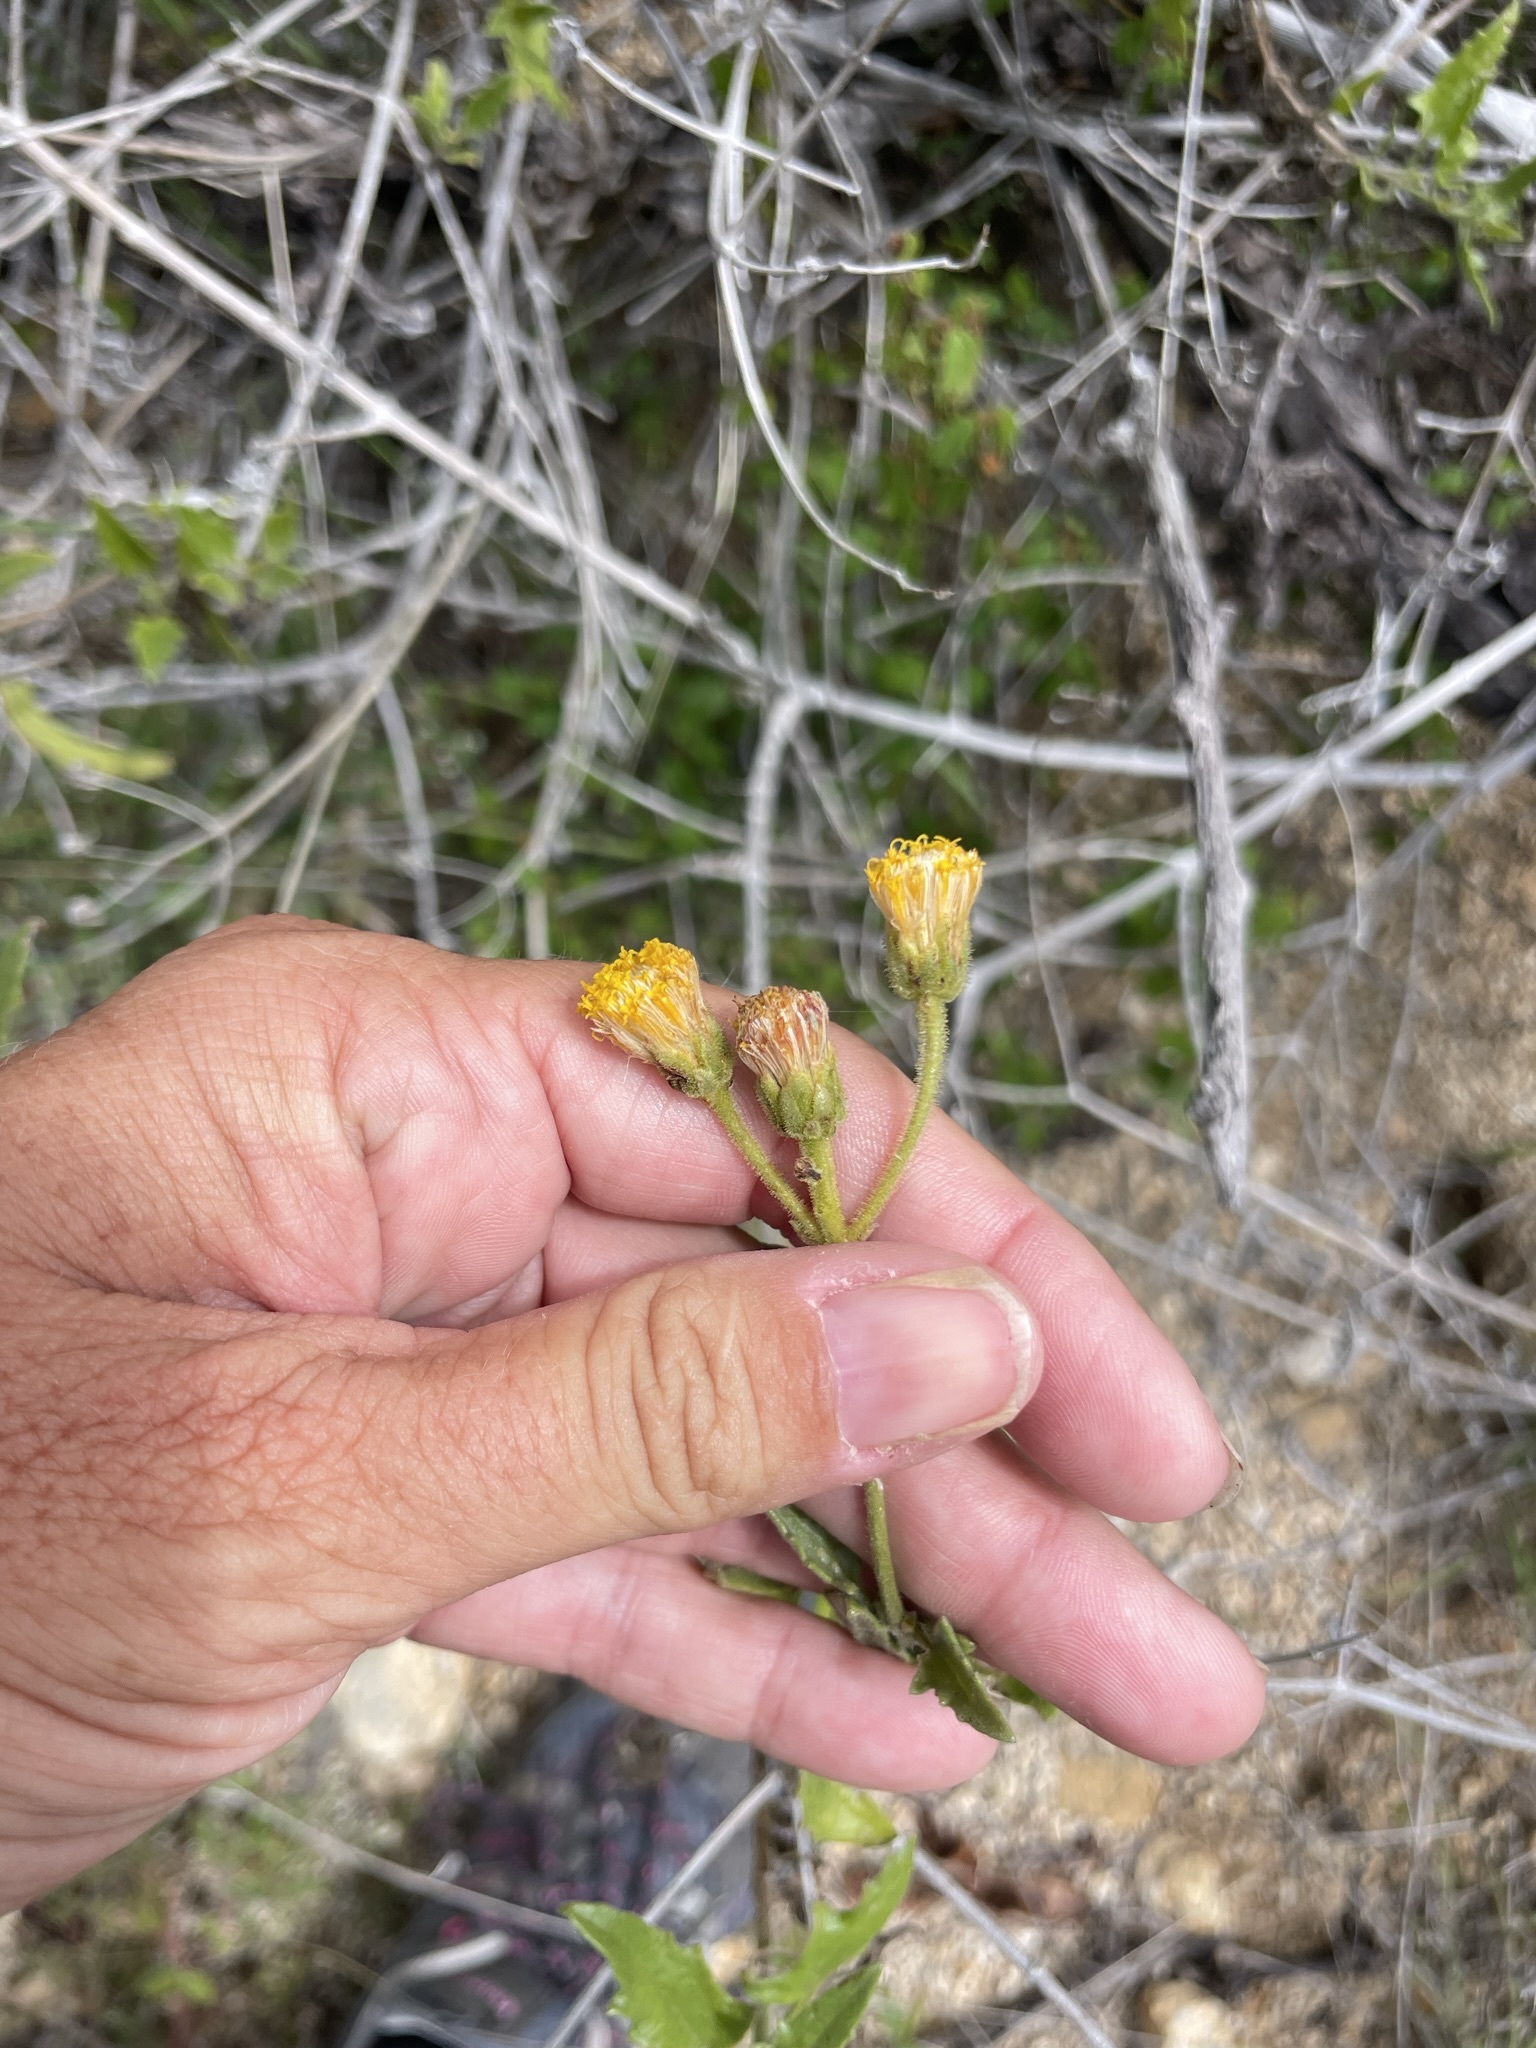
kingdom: Plantae
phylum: Tracheophyta
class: Magnoliopsida
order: Asterales
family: Asteraceae
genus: Bebbia
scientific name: Bebbia atriplicifolia
